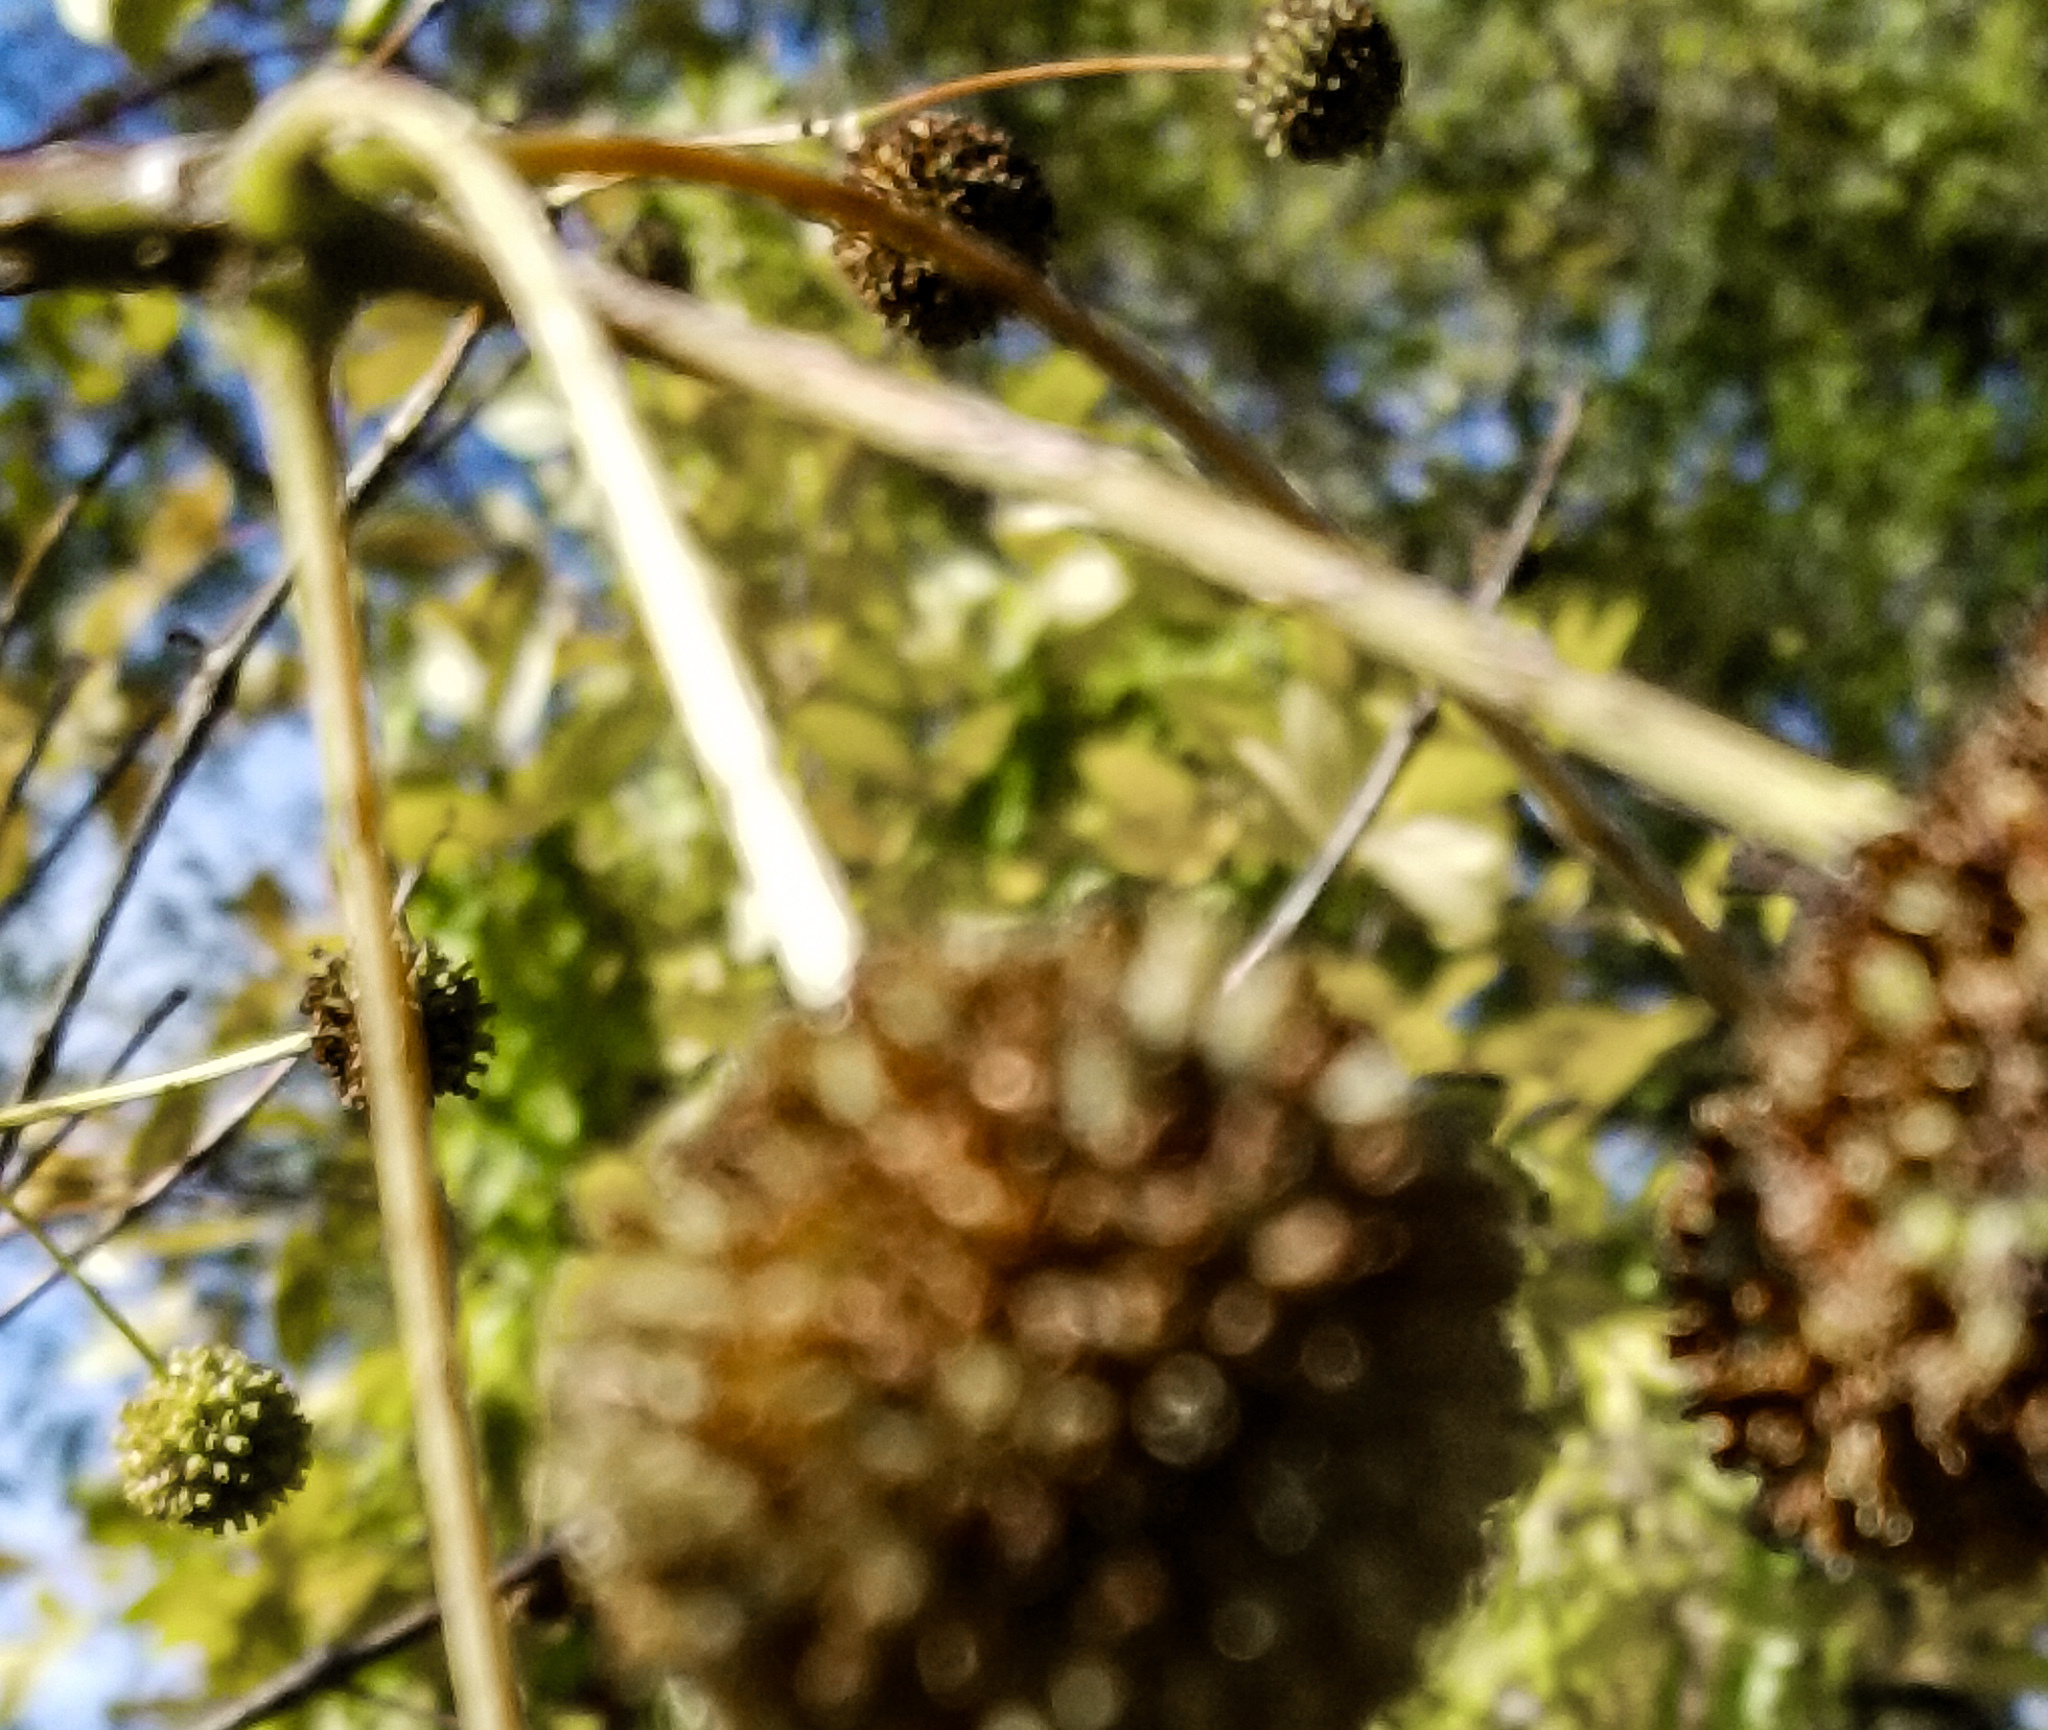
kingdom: Plantae
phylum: Tracheophyta
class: Magnoliopsida
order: Gentianales
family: Rubiaceae
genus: Cephalanthus
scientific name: Cephalanthus occidentalis
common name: Button-willow
